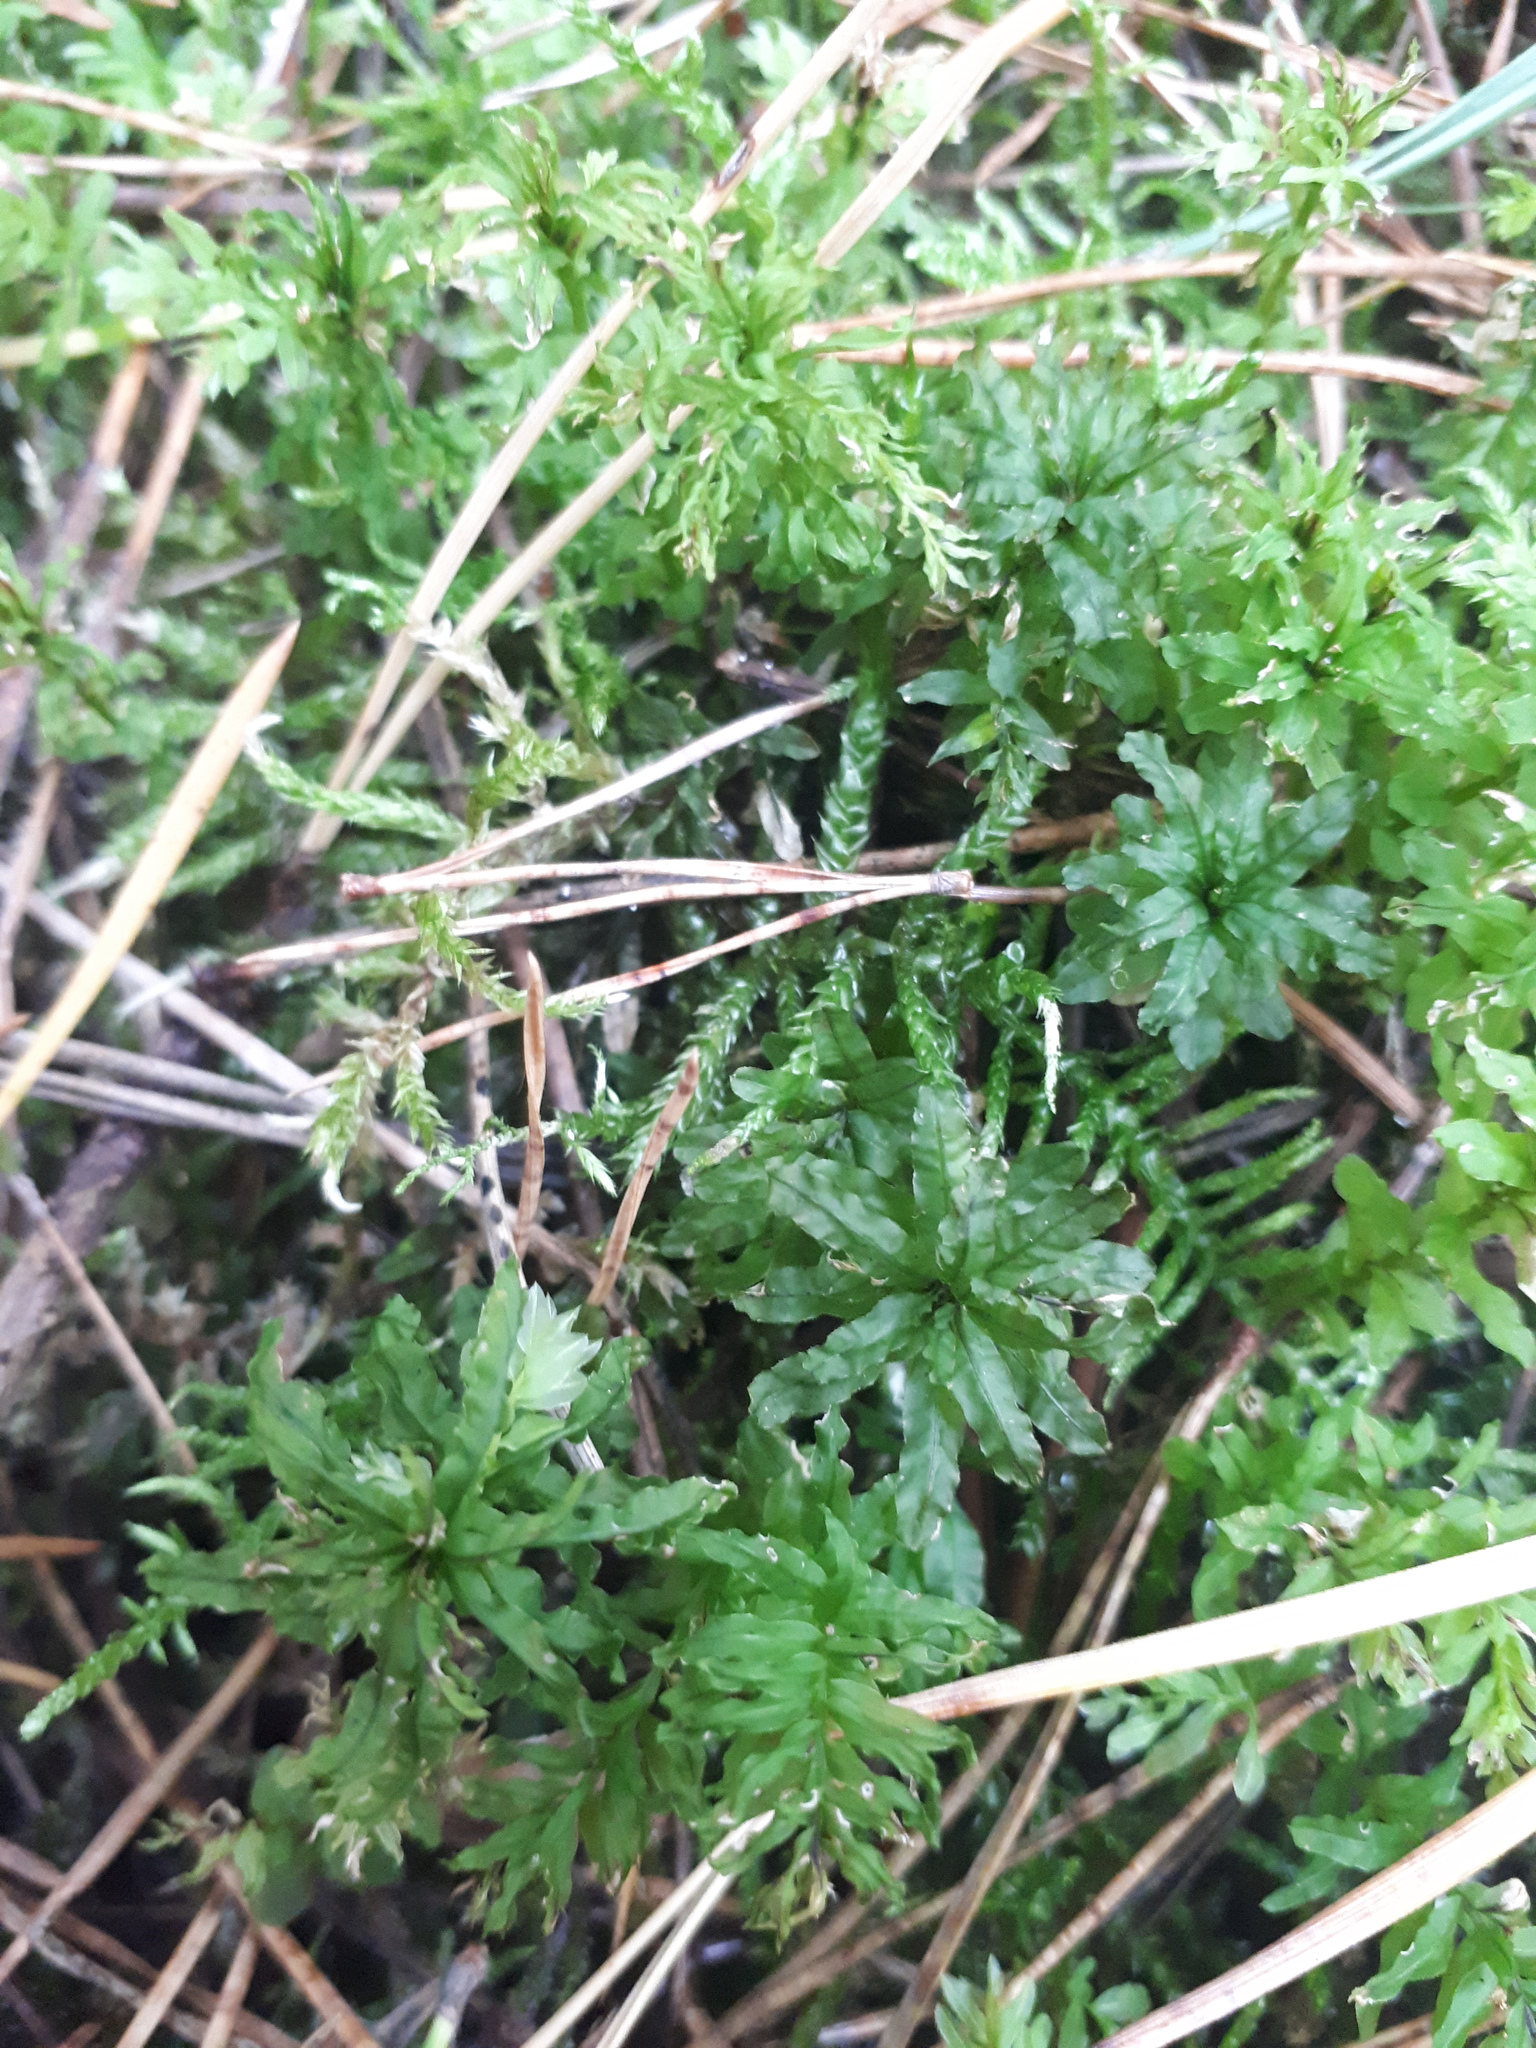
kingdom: Plantae
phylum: Bryophyta
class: Bryopsida
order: Bryales
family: Mniaceae
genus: Plagiomnium
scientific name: Plagiomnium undulatum
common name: Hart's-tongue thyme-moss
